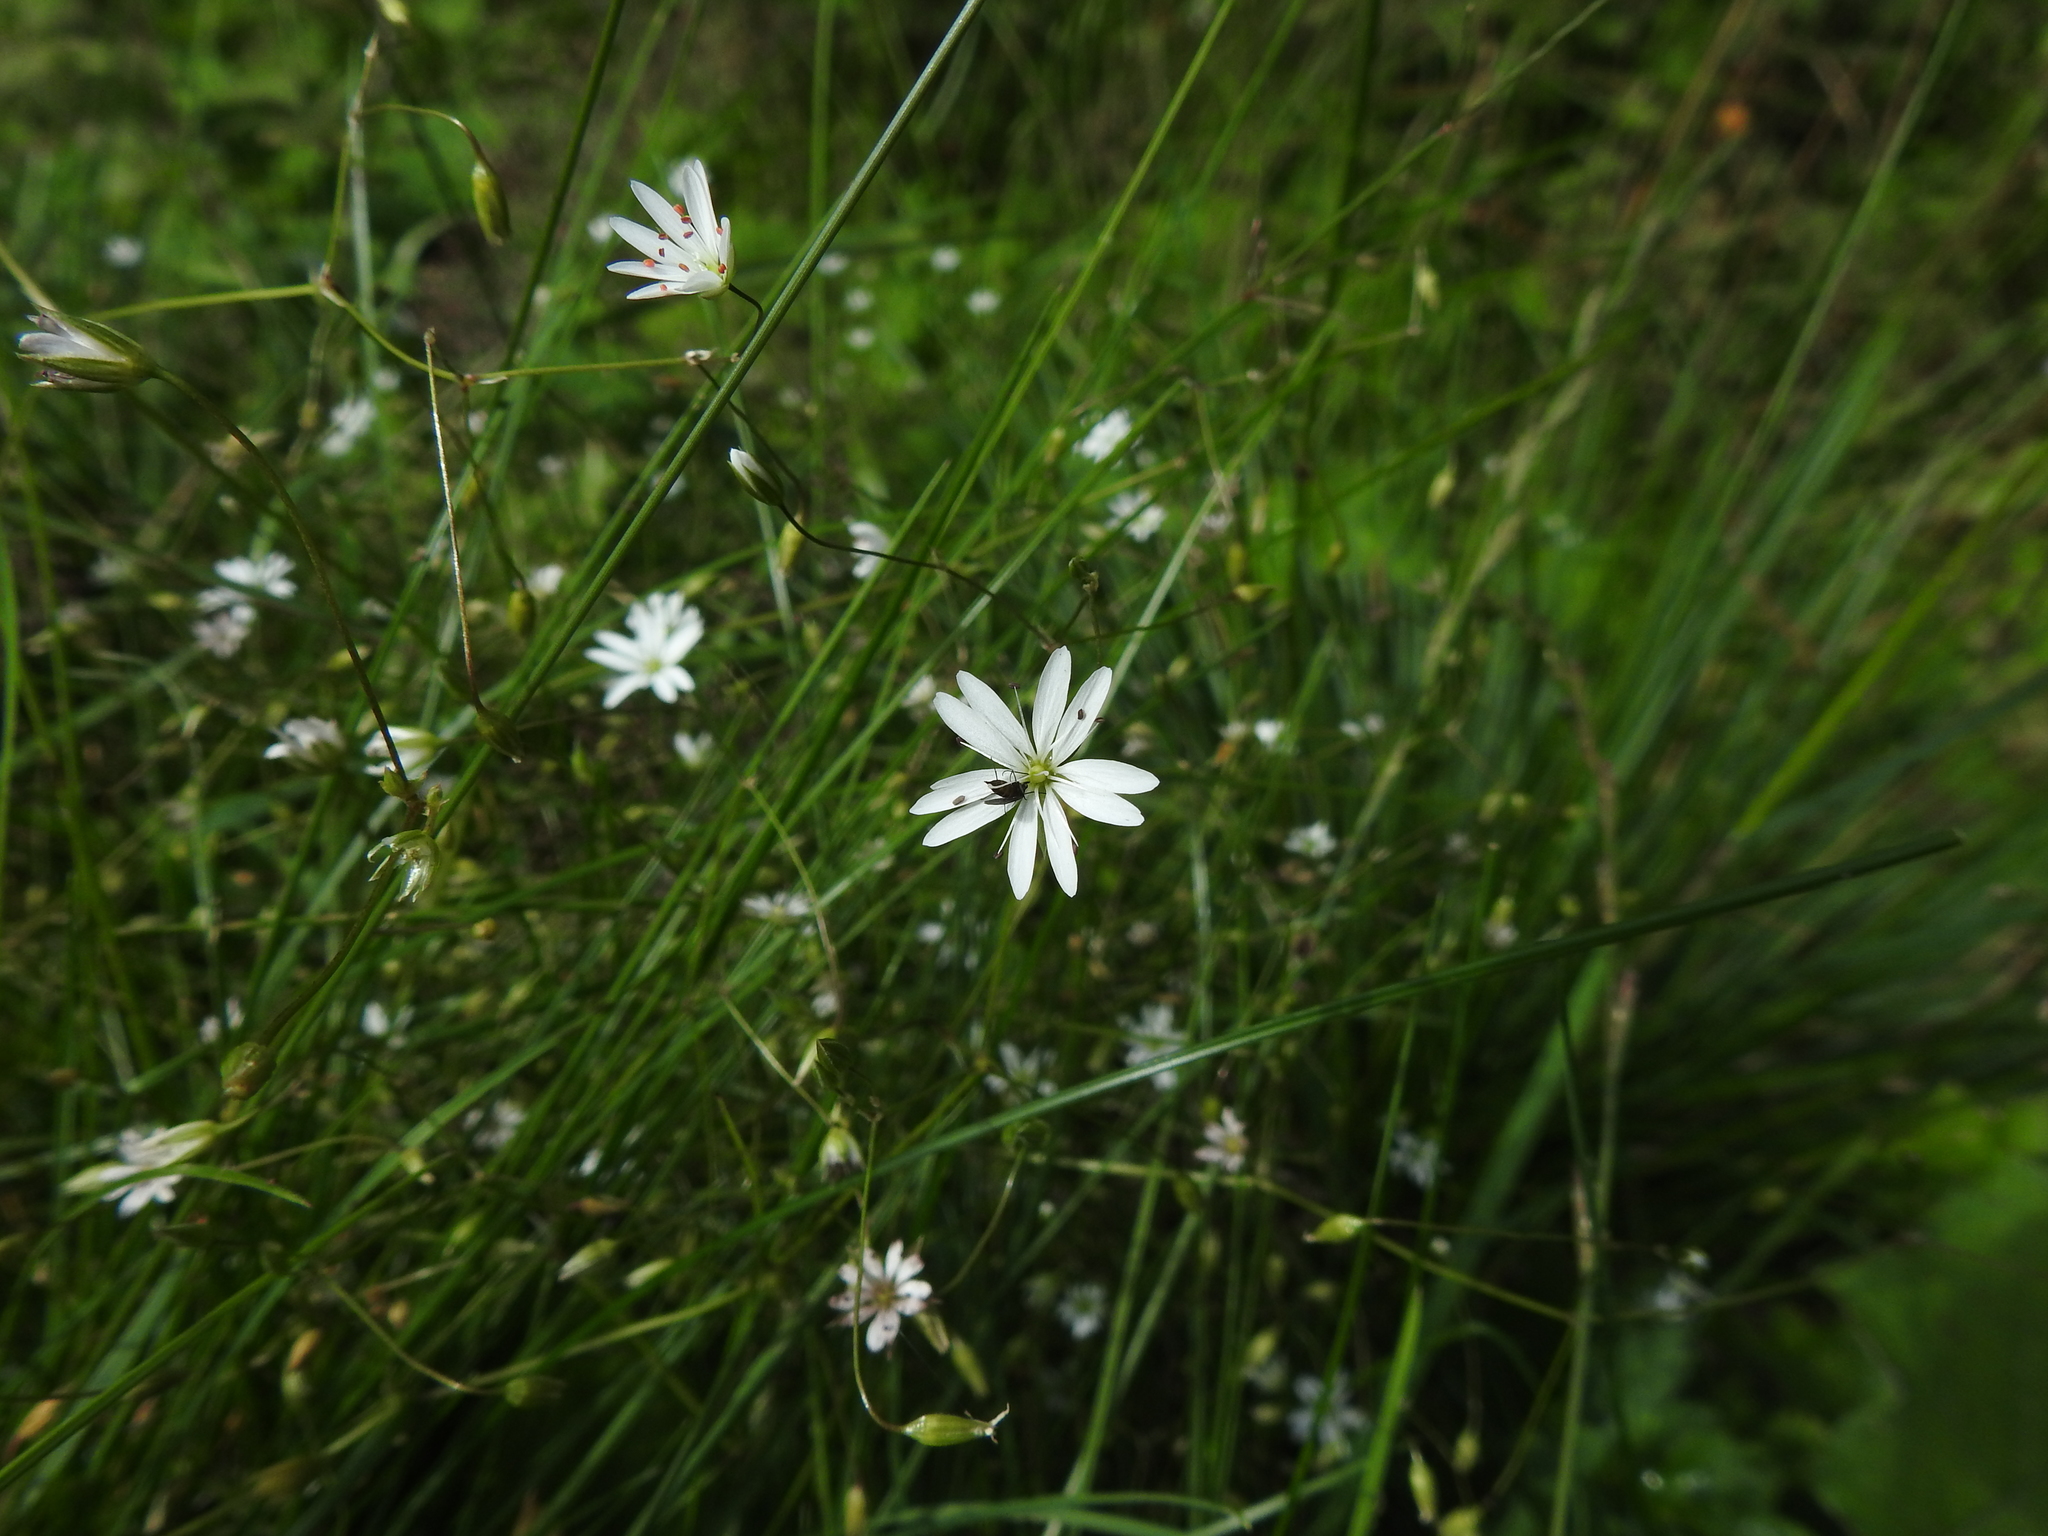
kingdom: Plantae
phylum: Tracheophyta
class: Magnoliopsida
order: Caryophyllales
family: Caryophyllaceae
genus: Stellaria
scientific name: Stellaria graminea
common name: Grass-like starwort
